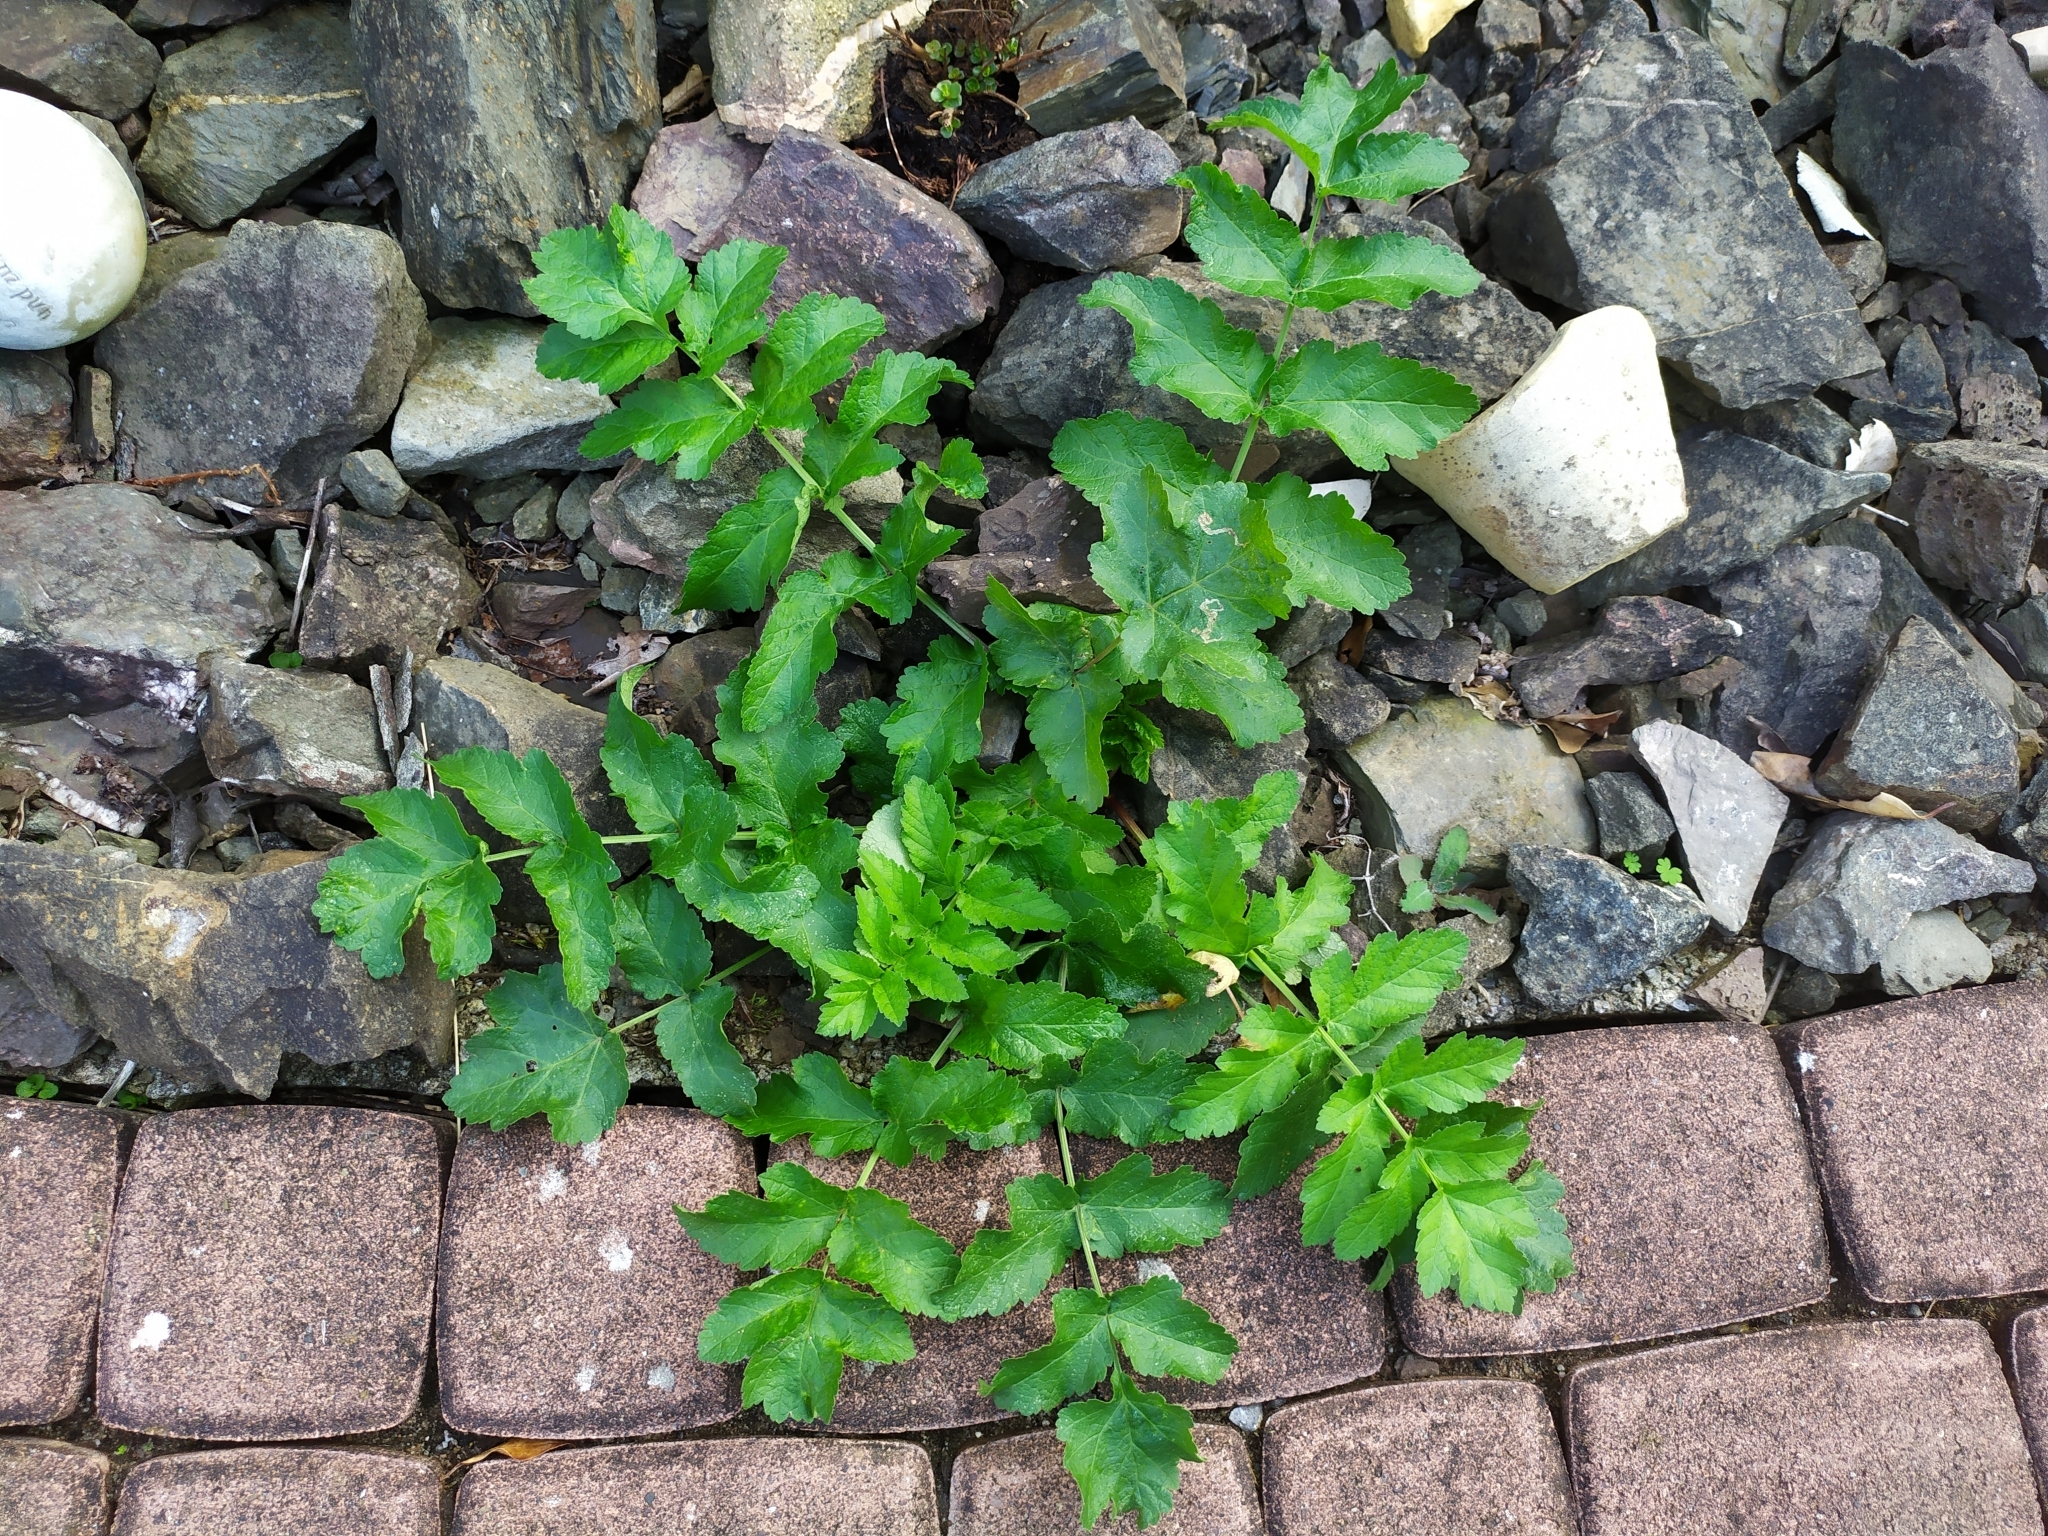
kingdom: Plantae
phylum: Tracheophyta
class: Magnoliopsida
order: Apiales
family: Apiaceae
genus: Pastinaca
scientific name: Pastinaca sativa
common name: Wild parsnip
